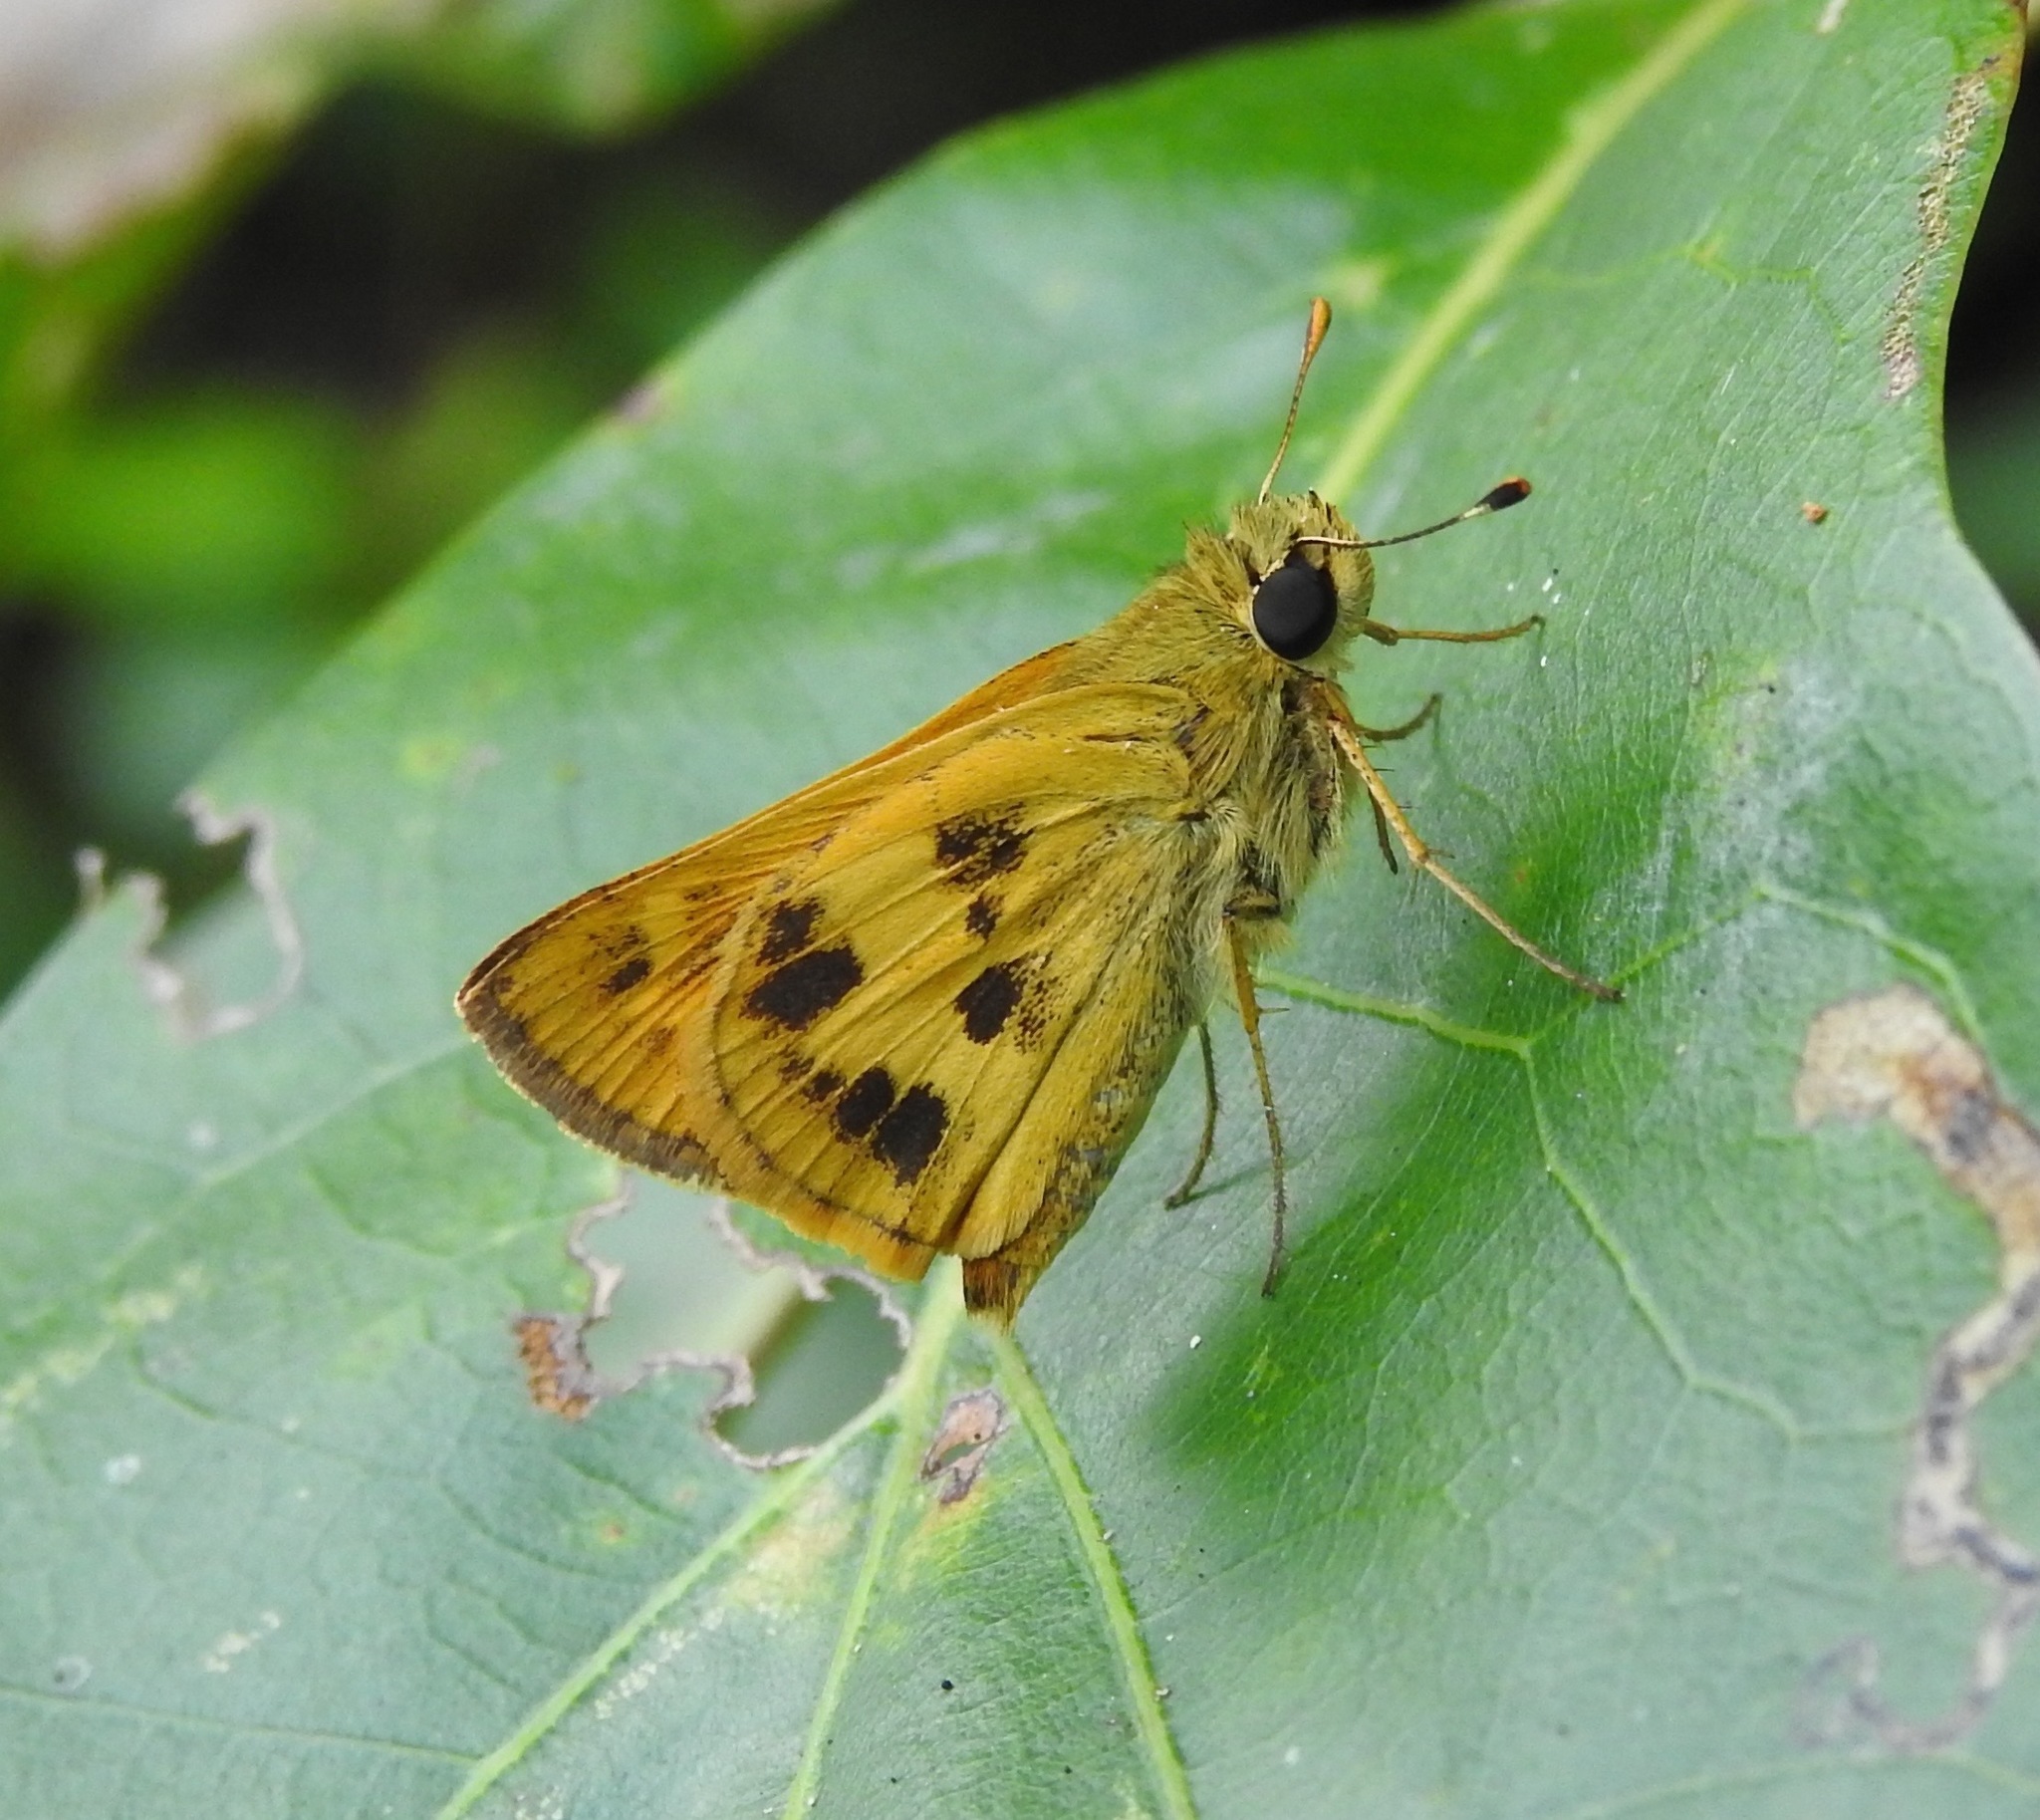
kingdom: Animalia
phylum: Arthropoda
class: Insecta
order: Lepidoptera
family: Hesperiidae
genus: Polites
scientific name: Polites vibex
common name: Whirlabout
